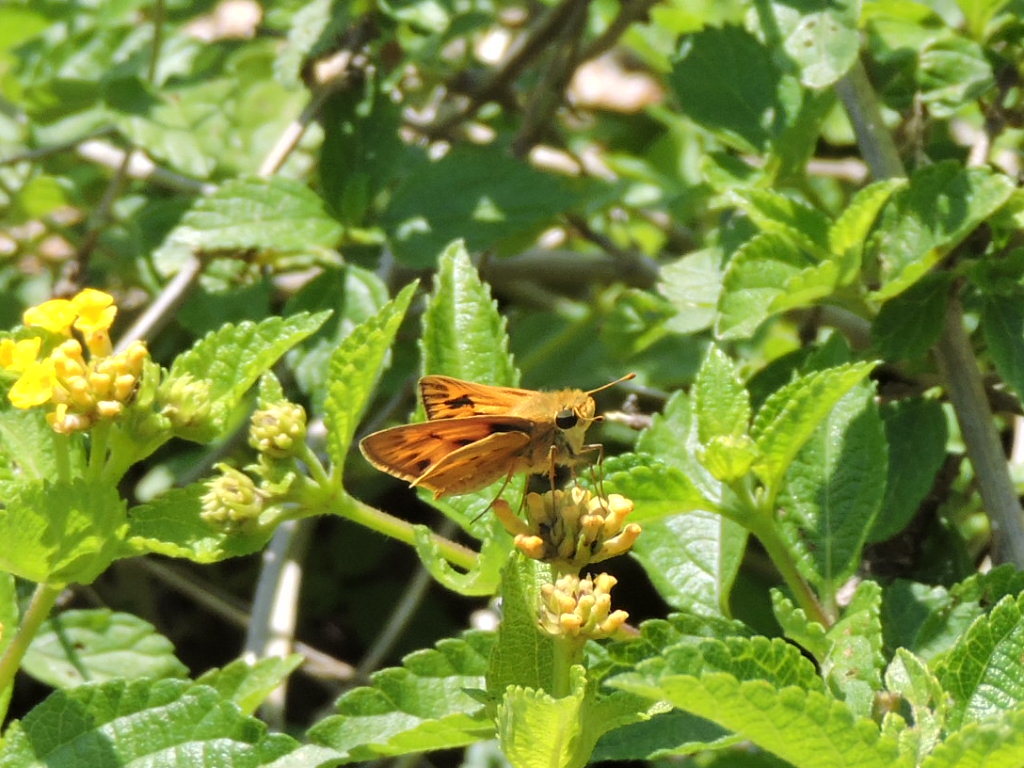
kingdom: Animalia
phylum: Arthropoda
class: Insecta
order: Lepidoptera
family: Hesperiidae
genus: Hylephila
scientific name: Hylephila phyleus
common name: Fiery skipper
